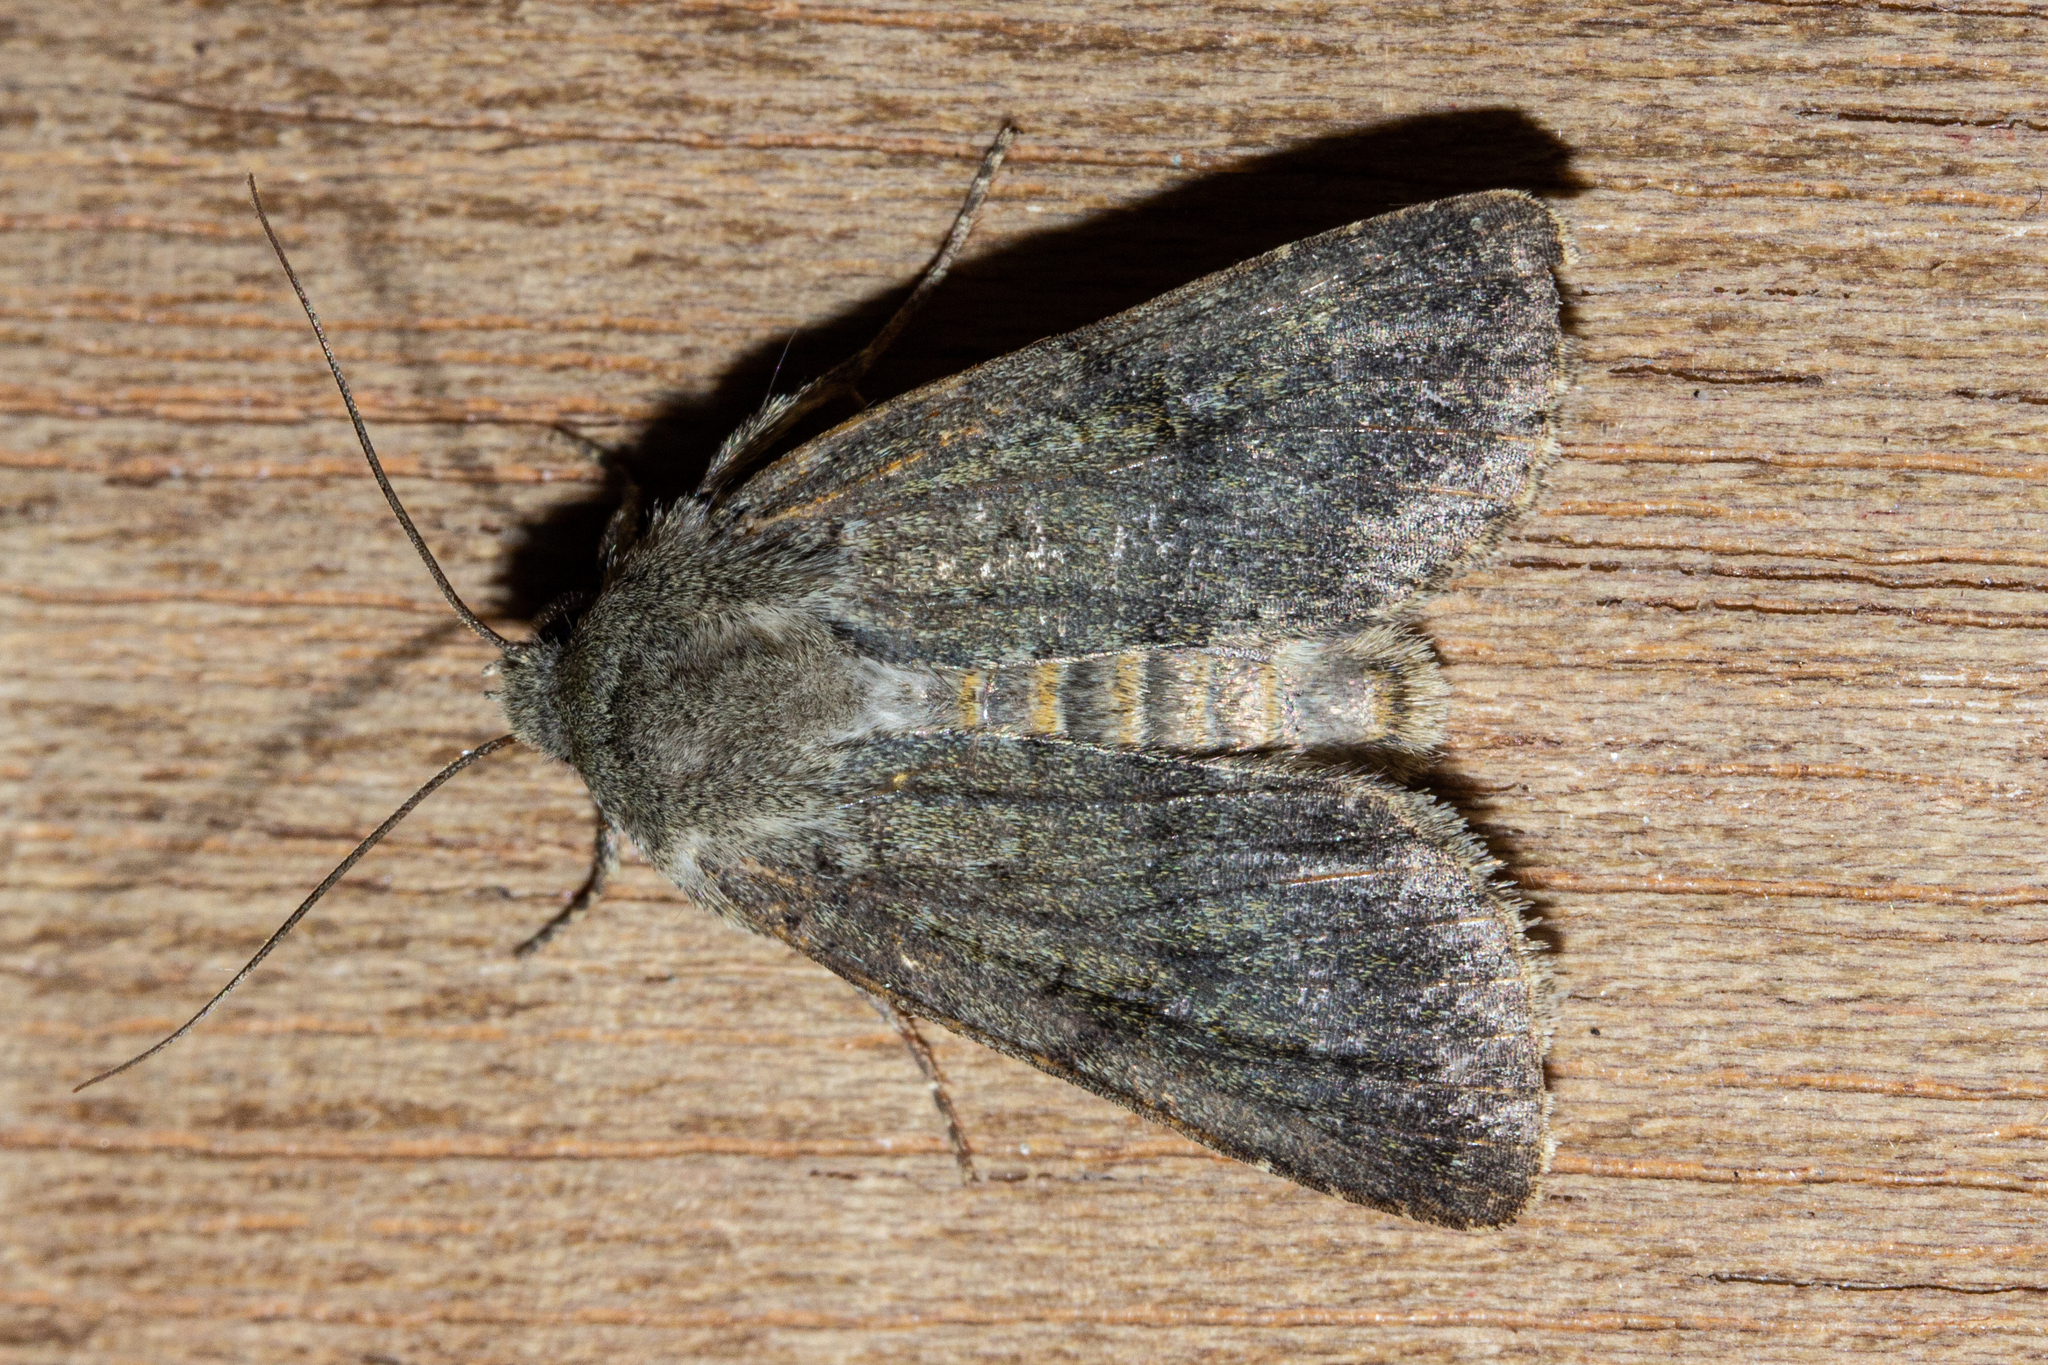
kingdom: Animalia
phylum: Arthropoda
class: Insecta
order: Lepidoptera
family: Noctuidae
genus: Ichneutica
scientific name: Ichneutica moderata
